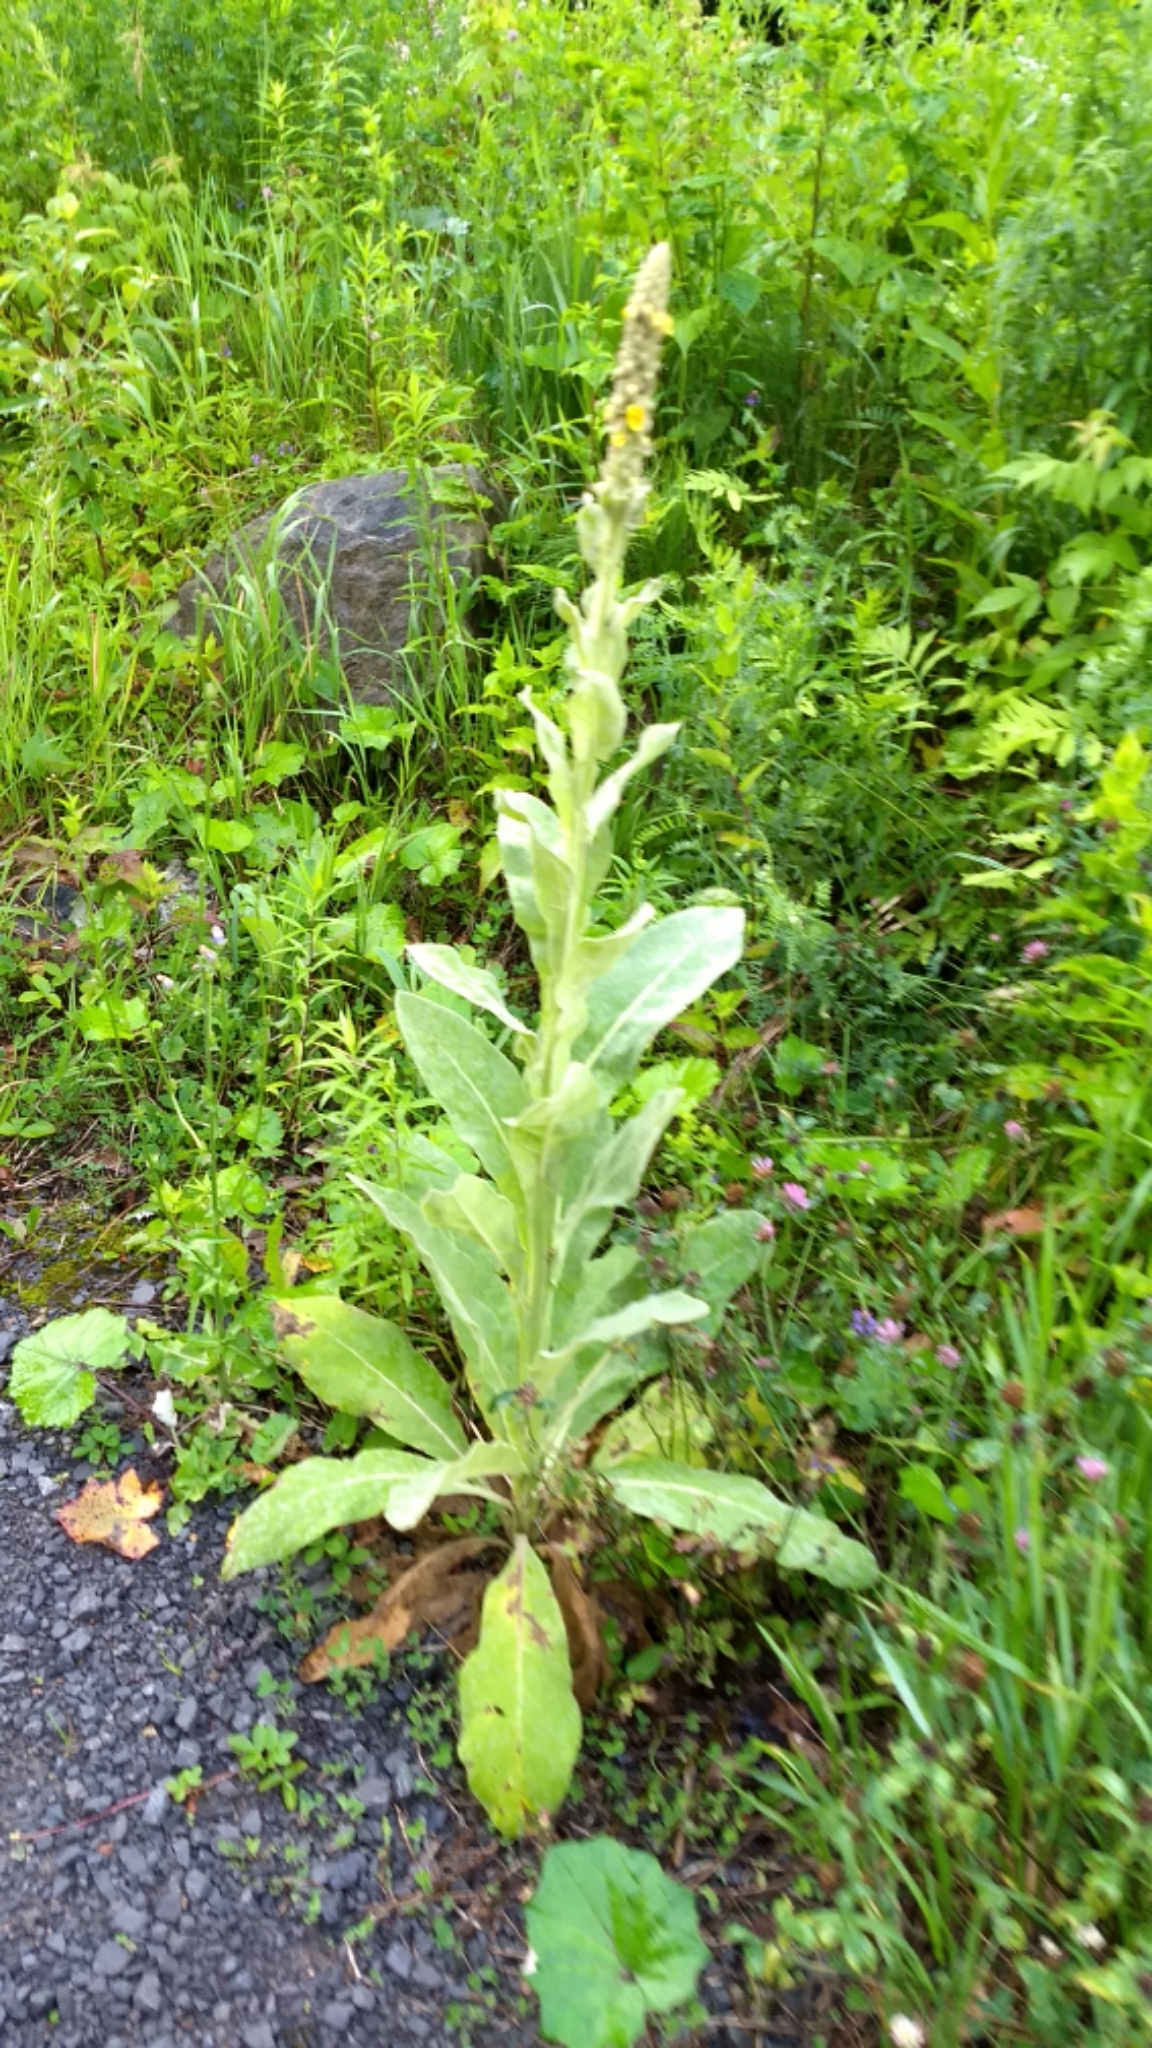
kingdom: Plantae
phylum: Tracheophyta
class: Magnoliopsida
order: Lamiales
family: Scrophulariaceae
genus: Verbascum
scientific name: Verbascum thapsus
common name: Common mullein
